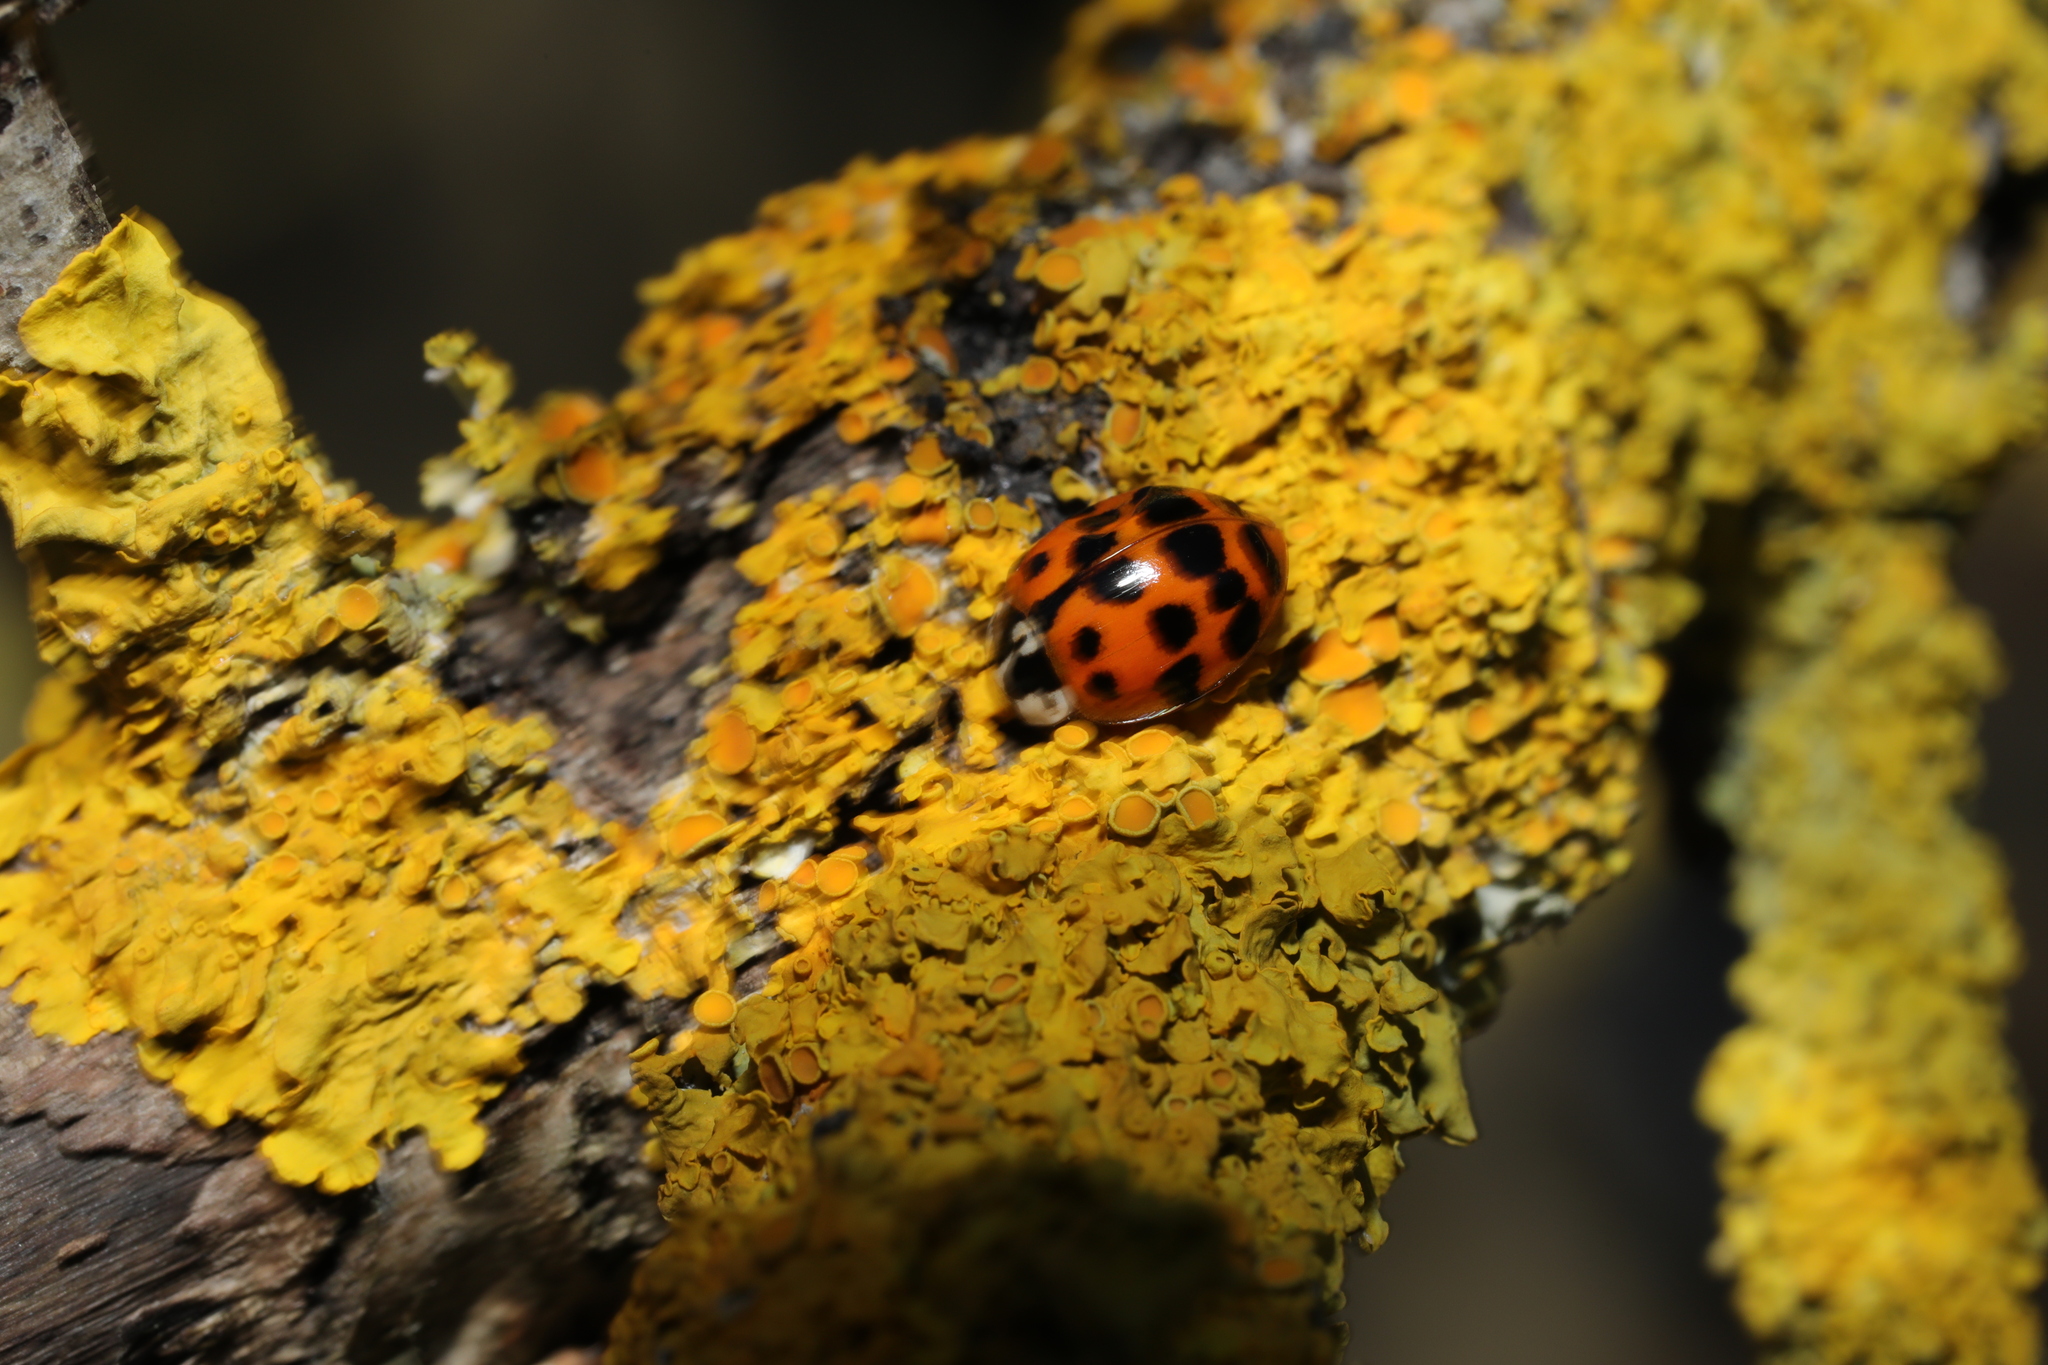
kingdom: Animalia
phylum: Arthropoda
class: Insecta
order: Coleoptera
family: Coccinellidae
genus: Harmonia
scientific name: Harmonia axyridis
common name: Harlequin ladybird
